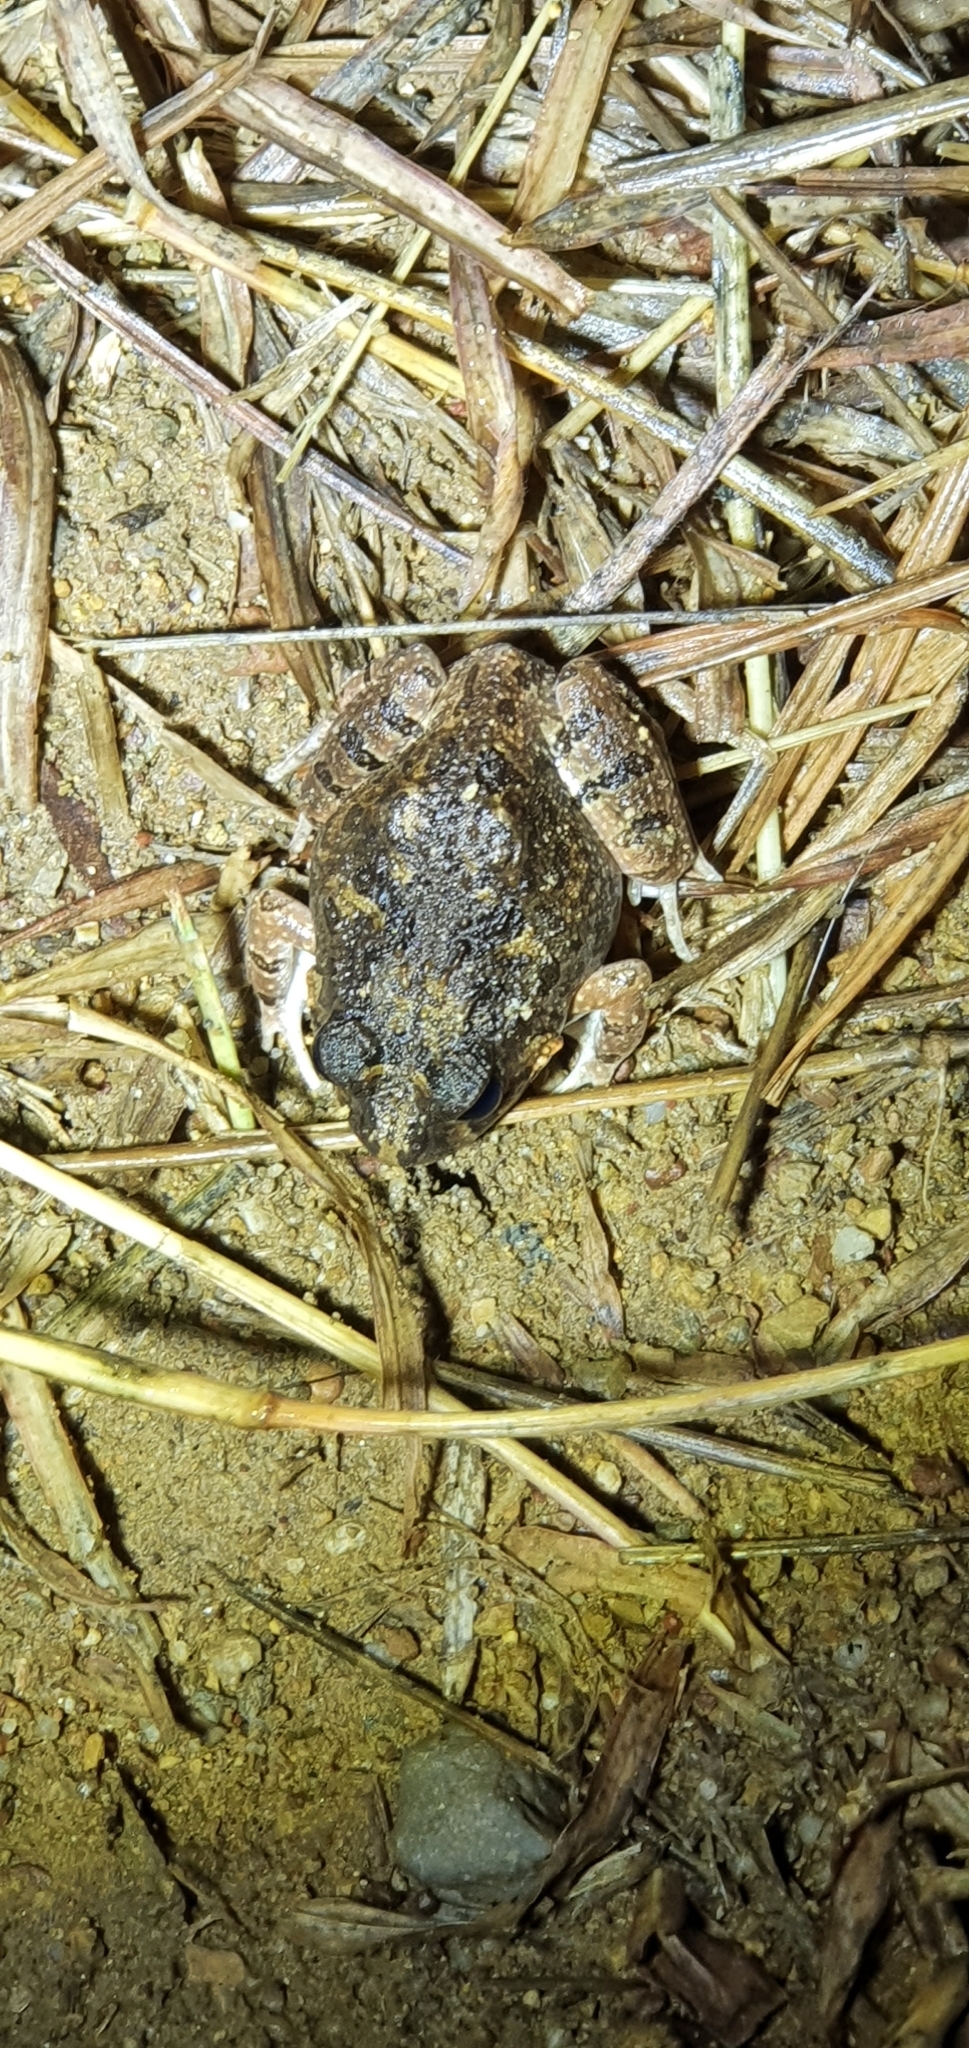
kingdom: Animalia
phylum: Chordata
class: Amphibia
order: Anura
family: Limnodynastidae
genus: Platyplectrum
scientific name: Platyplectrum ornatum
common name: Ornate burrowing frog
